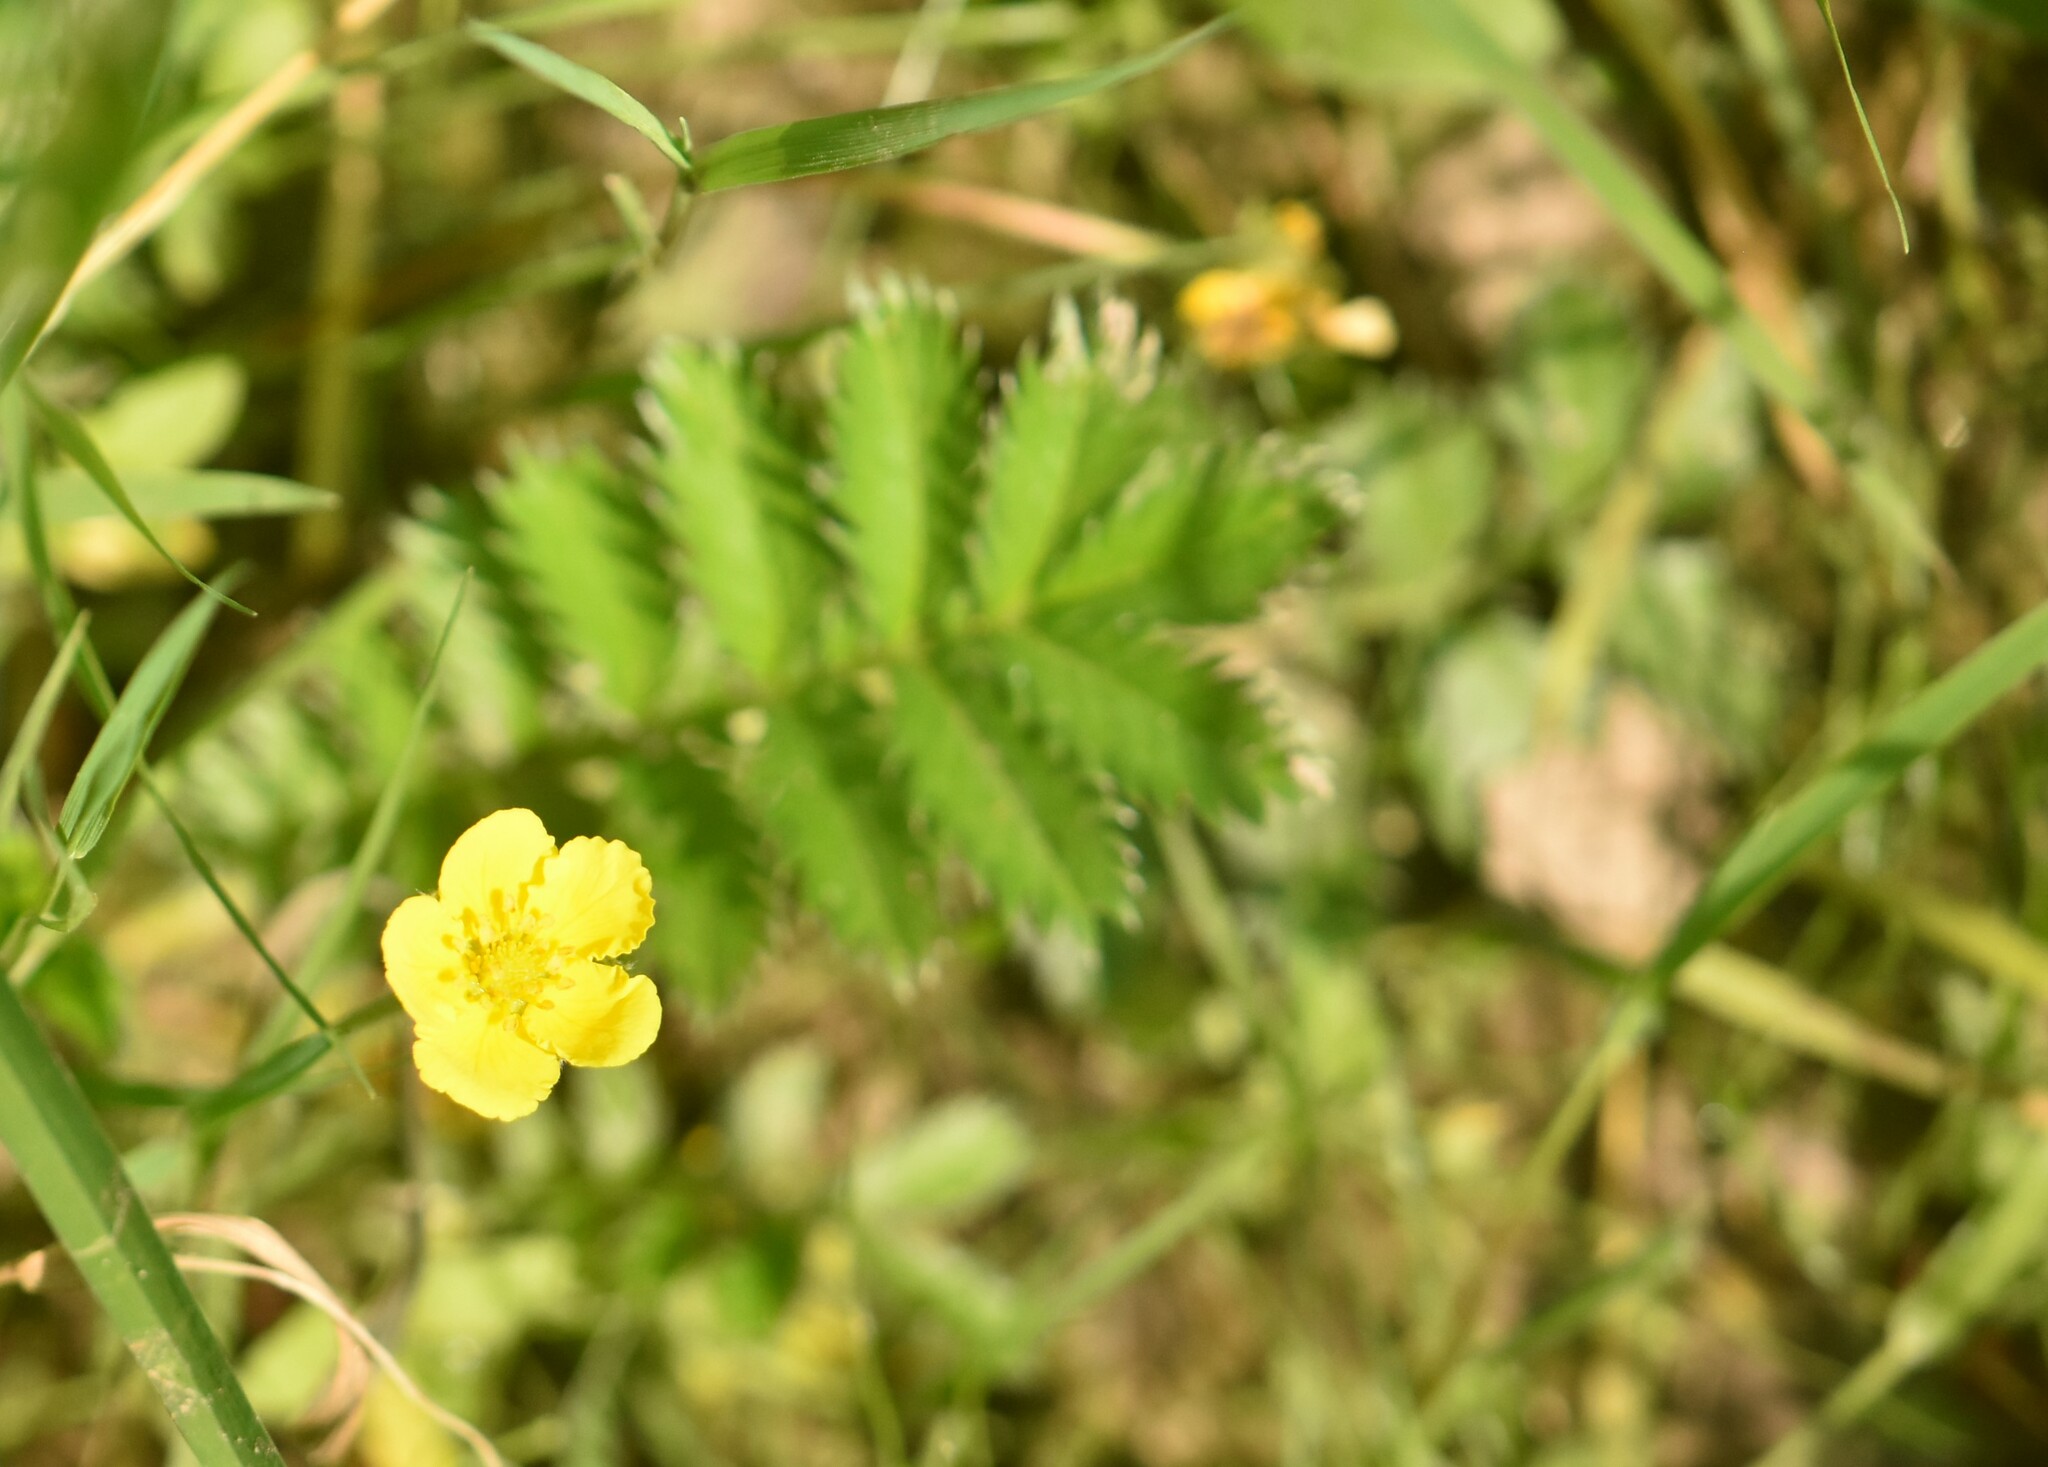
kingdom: Plantae
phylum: Tracheophyta
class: Magnoliopsida
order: Rosales
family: Rosaceae
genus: Argentina
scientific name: Argentina anserina
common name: Common silverweed
